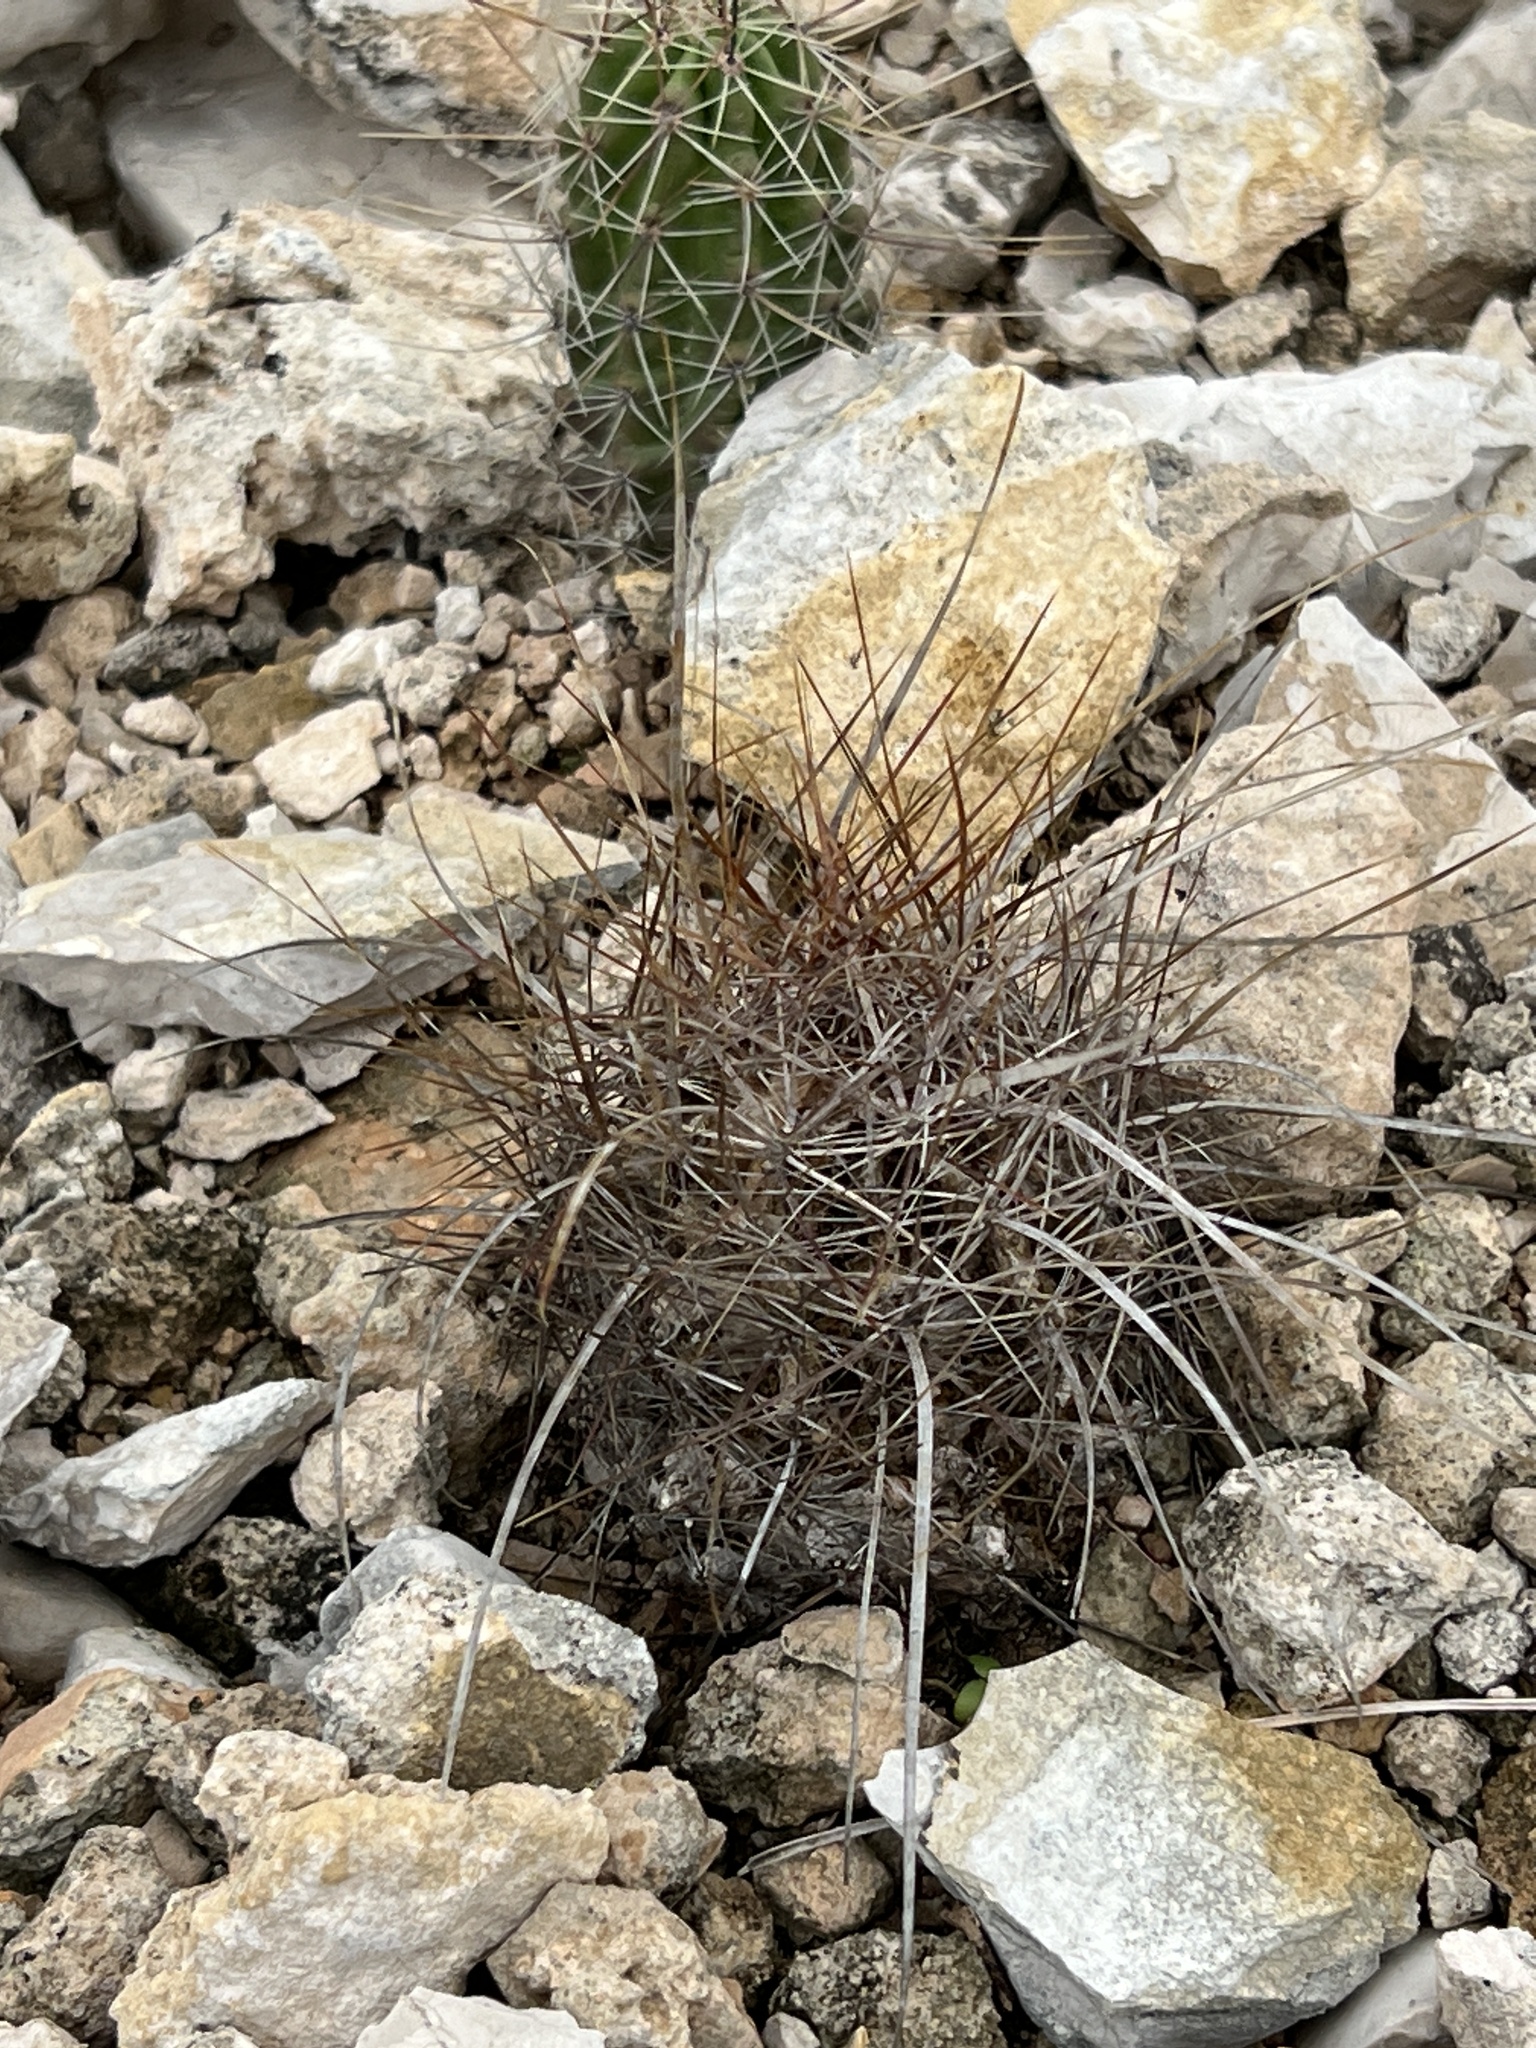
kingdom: Plantae
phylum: Tracheophyta
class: Magnoliopsida
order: Caryophyllales
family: Cactaceae
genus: Bisnaga
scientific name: Bisnaga hamatacantha
